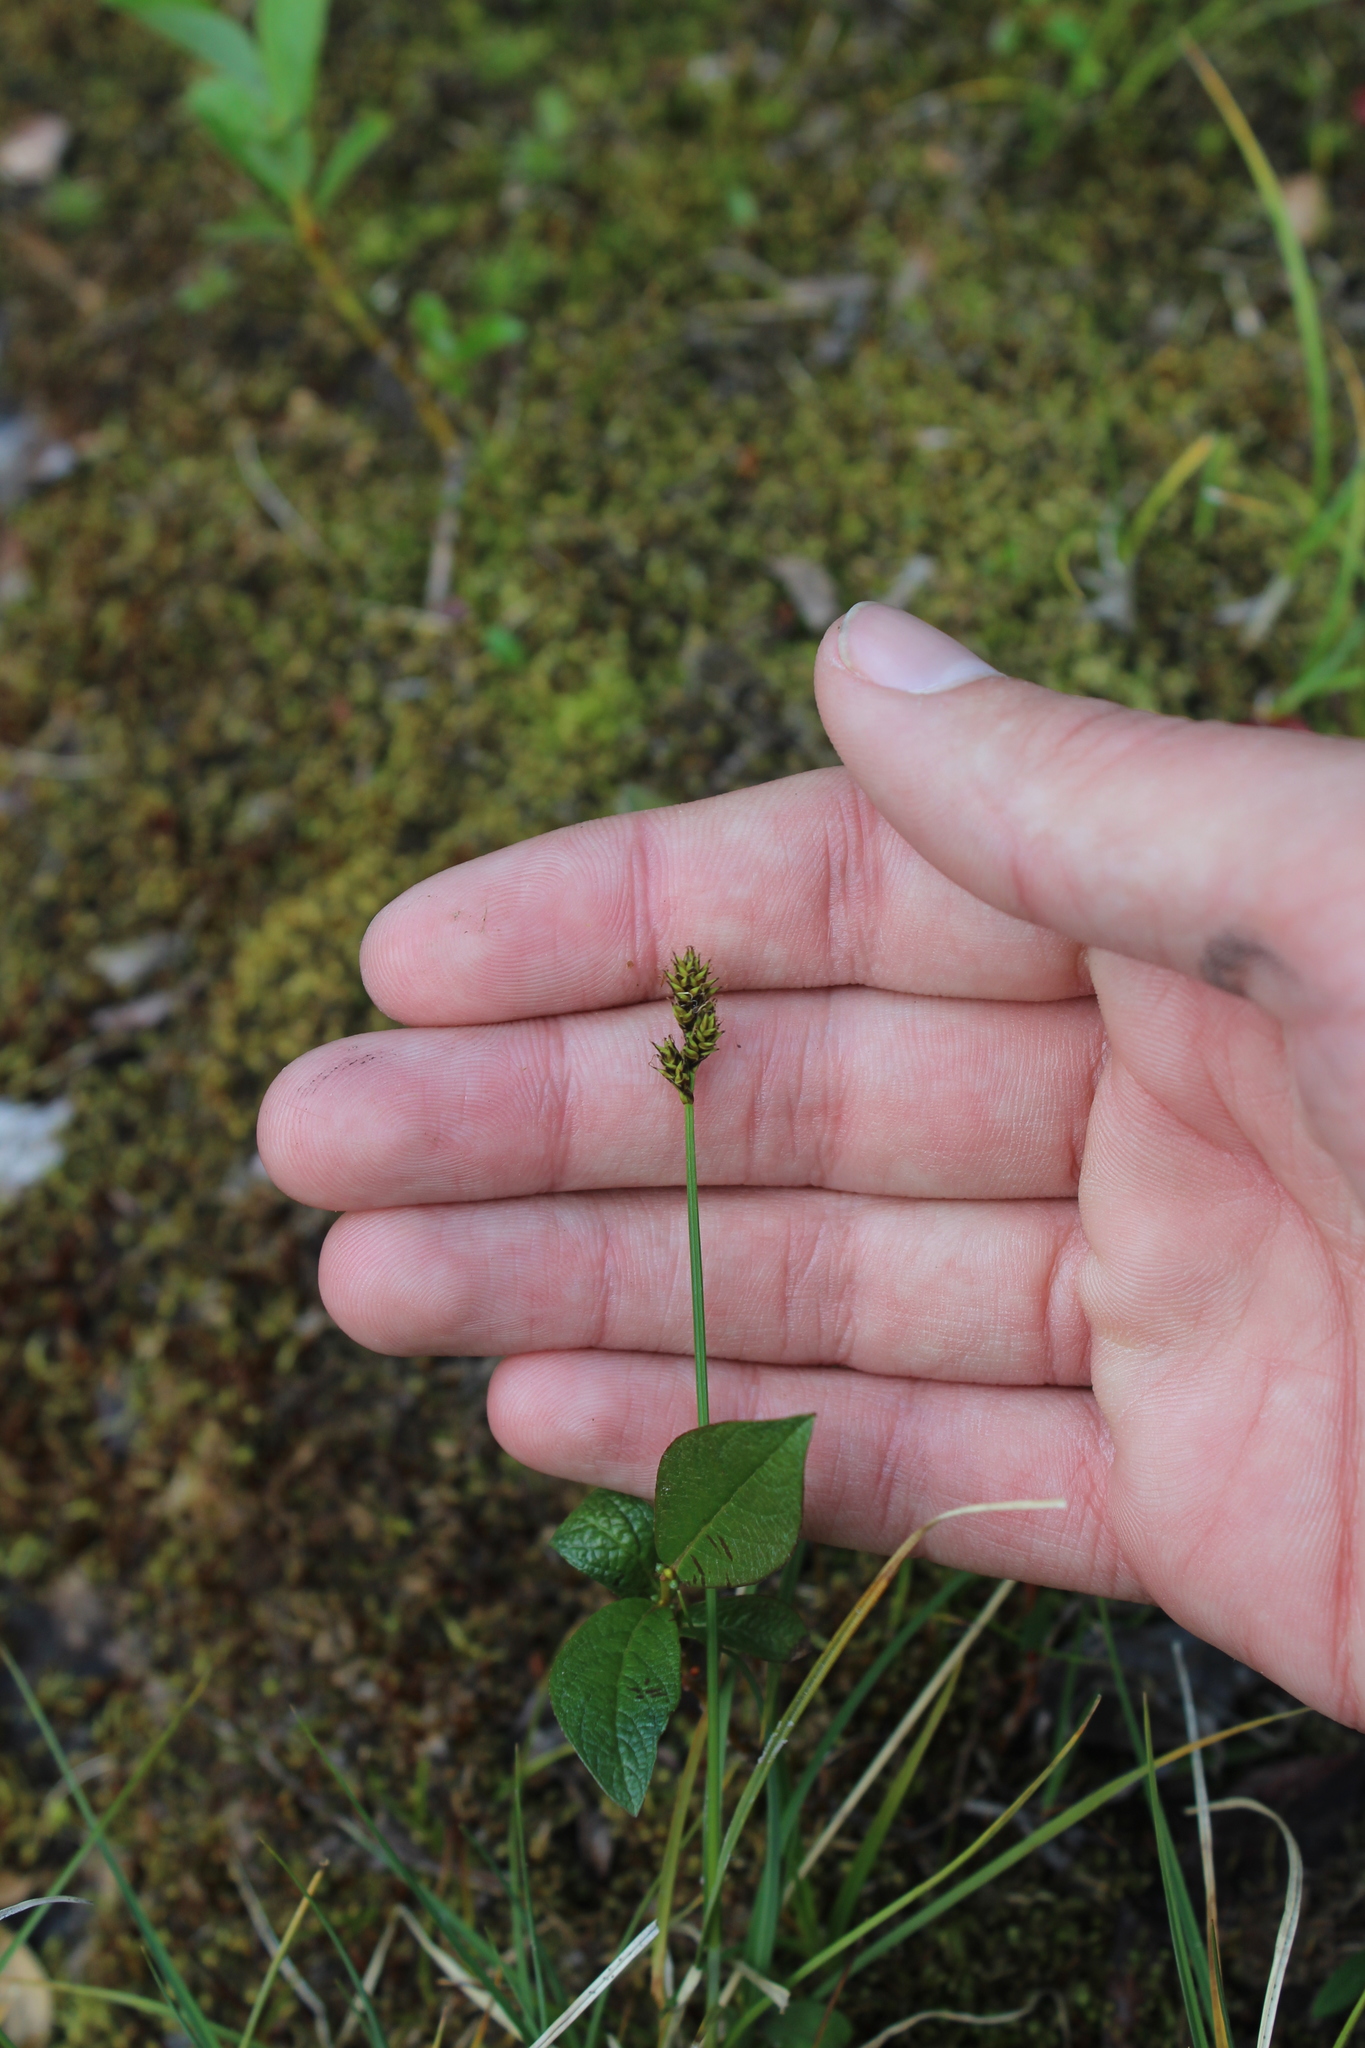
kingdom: Plantae
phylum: Tracheophyta
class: Liliopsida
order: Poales
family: Cyperaceae
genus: Carex
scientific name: Carex lachenalii
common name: Hare's-foot sedge
